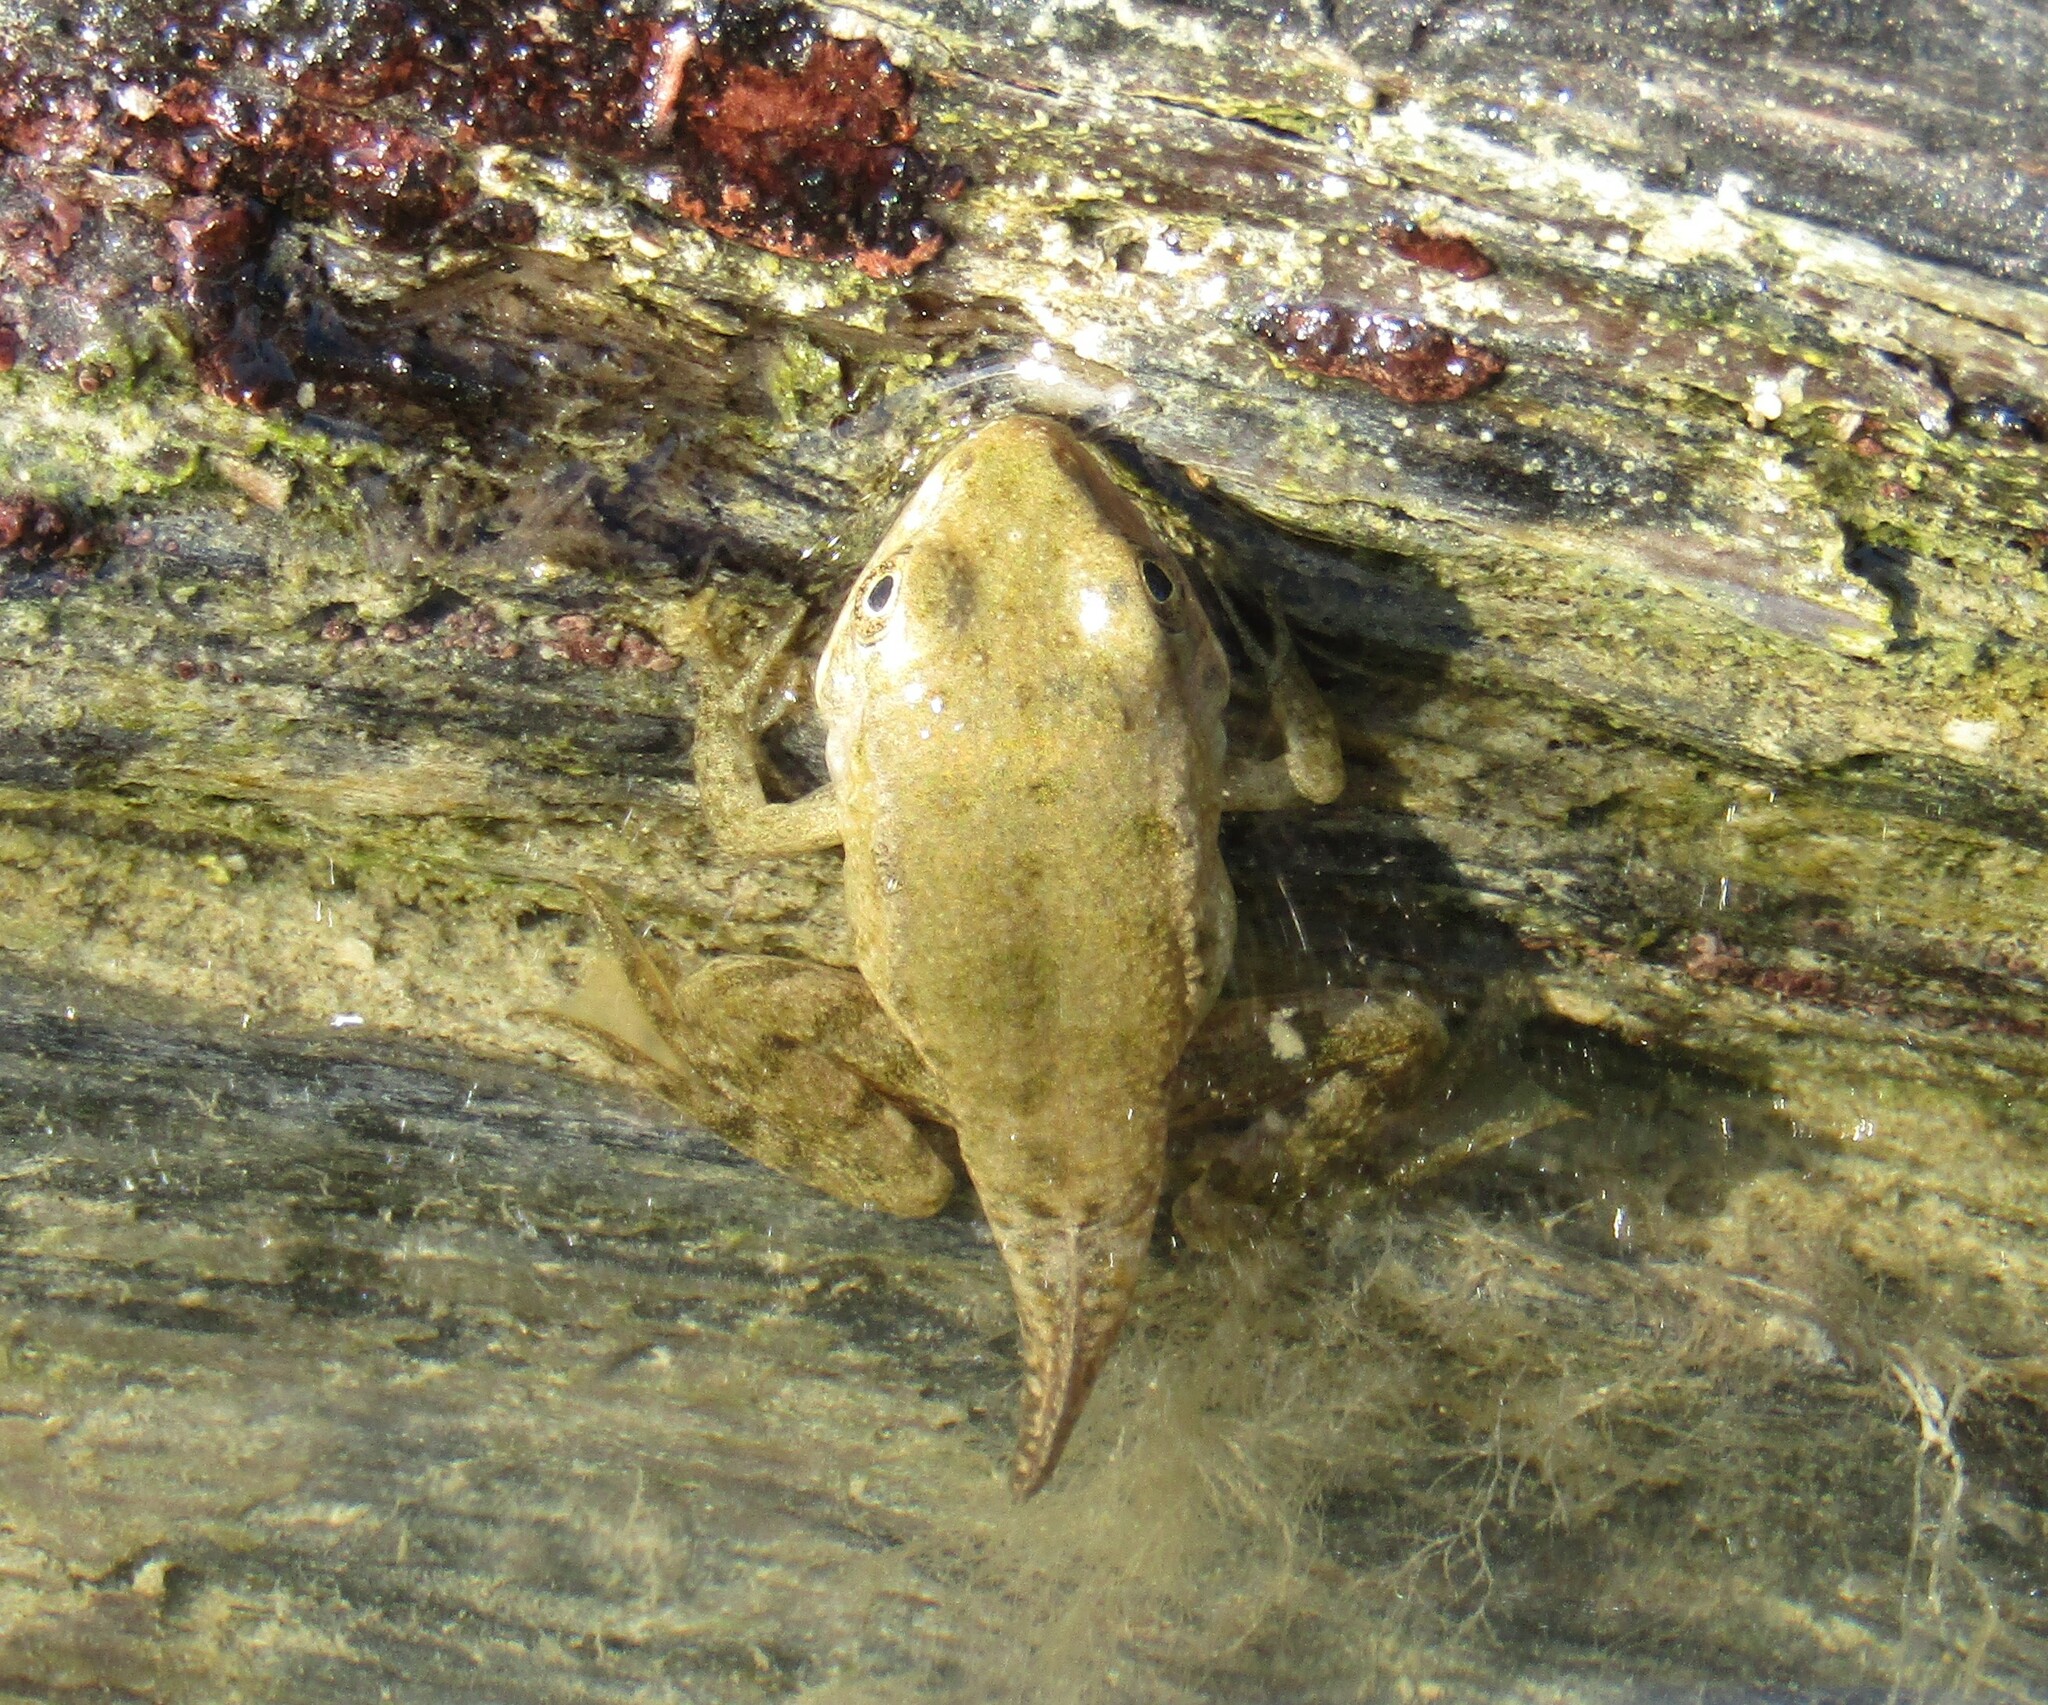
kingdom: Animalia
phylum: Chordata
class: Amphibia
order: Anura
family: Ranidae
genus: Pelophylax
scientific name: Pelophylax ridibundus
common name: Marsh frog
